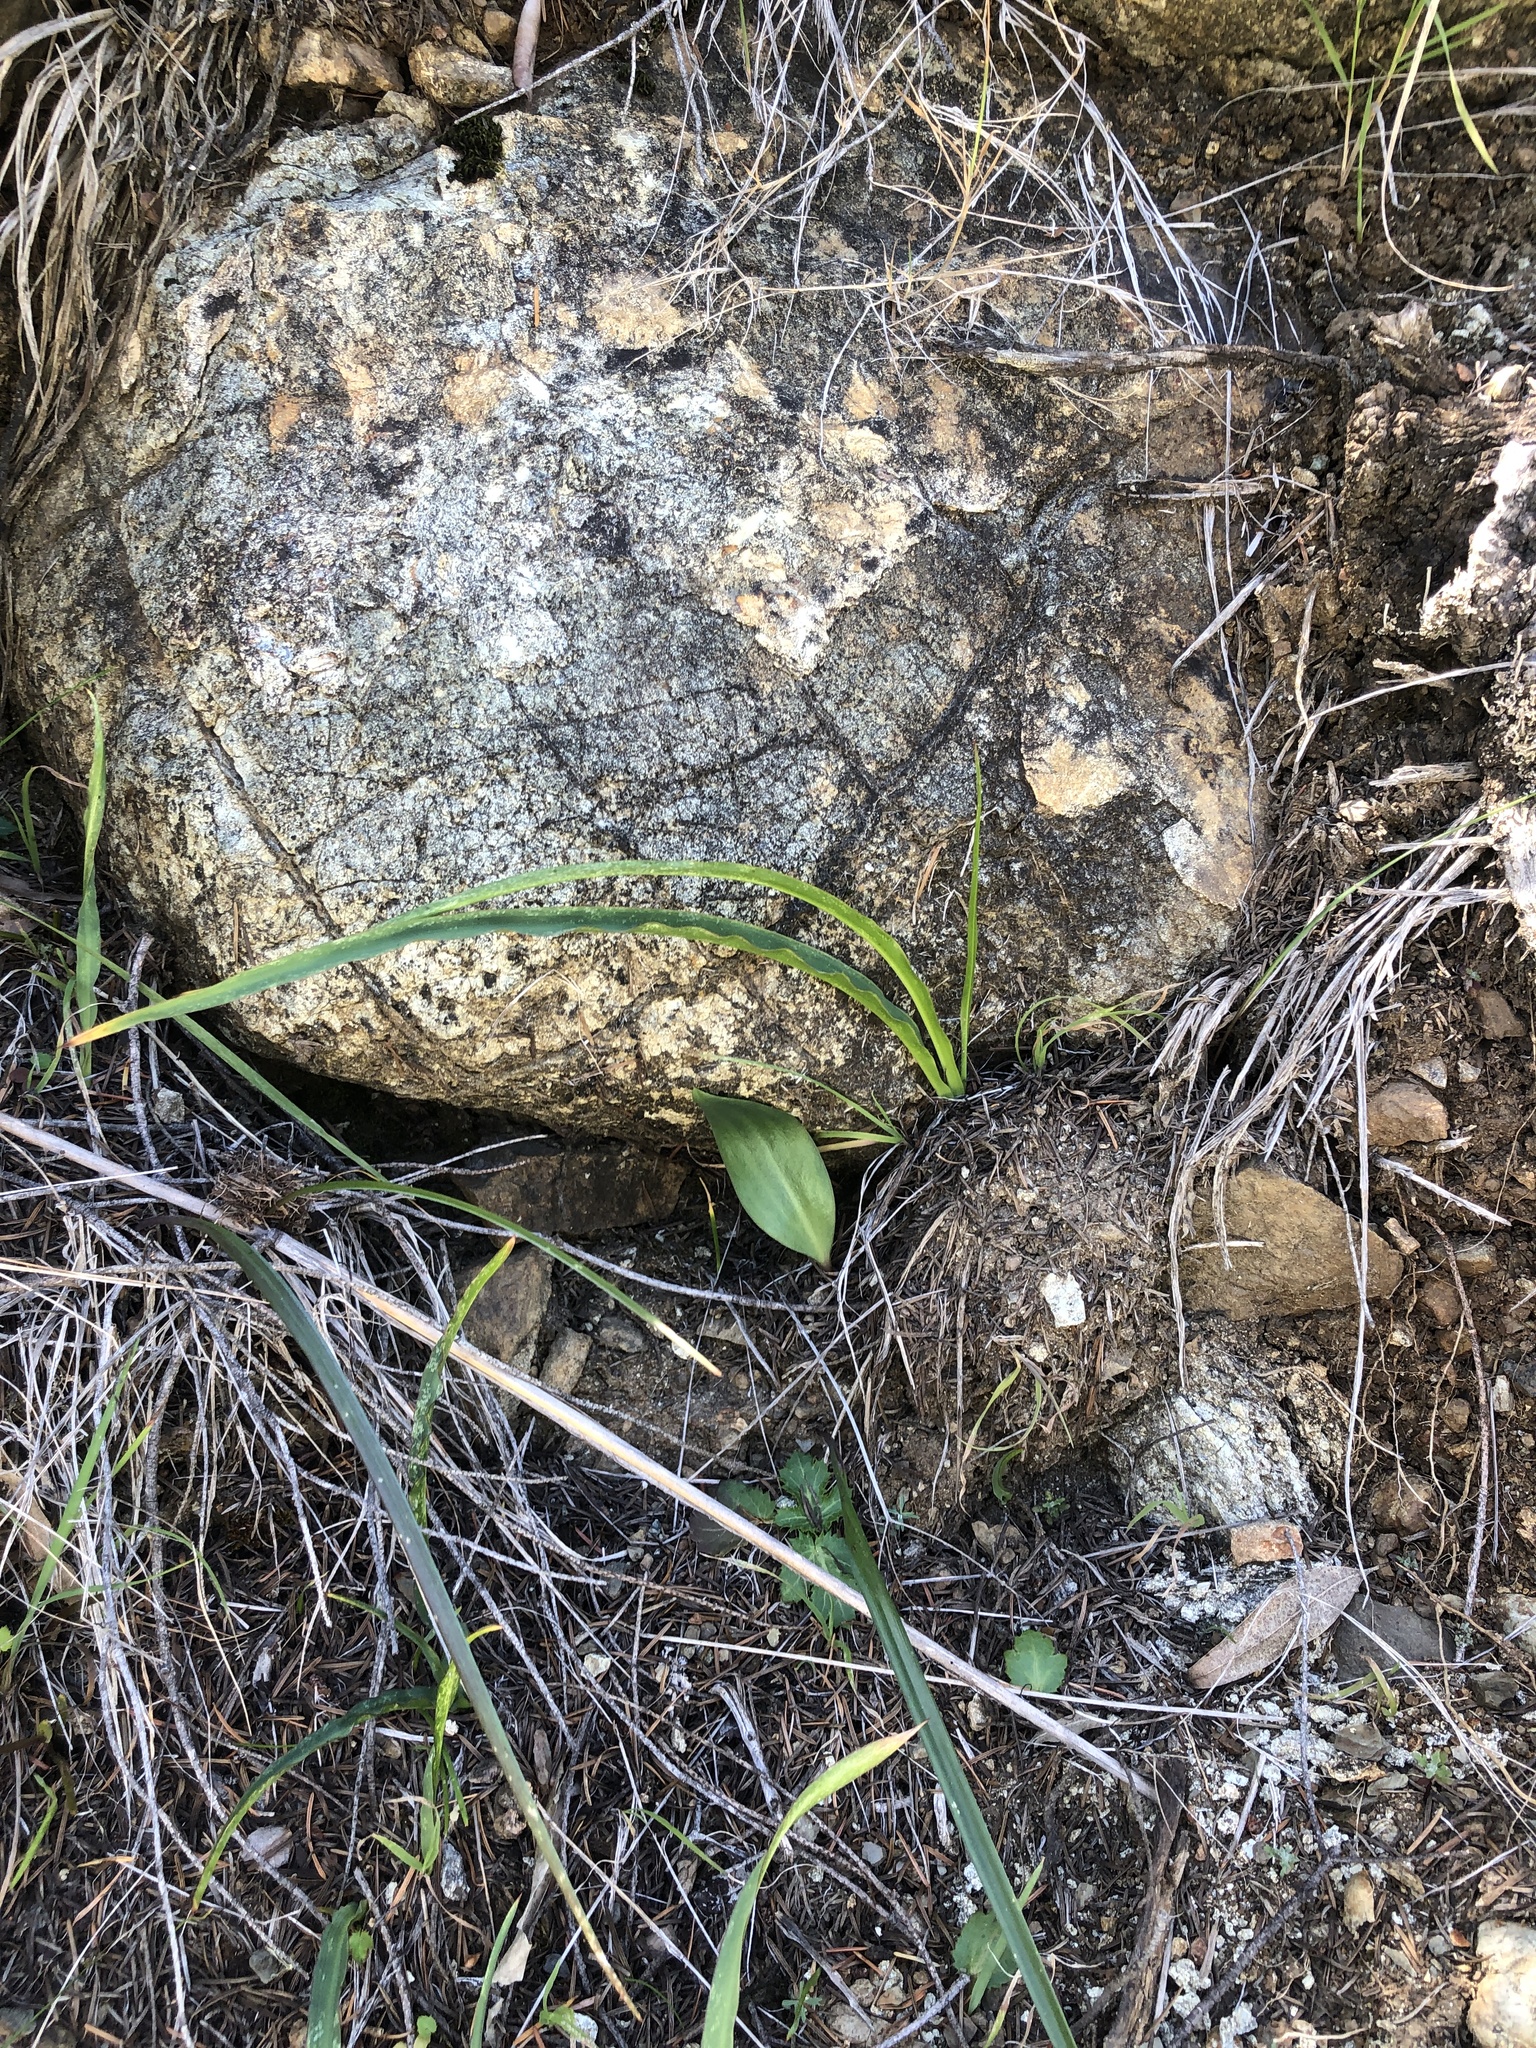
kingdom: Plantae
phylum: Tracheophyta
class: Liliopsida
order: Liliales
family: Liliaceae
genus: Fritillaria
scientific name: Fritillaria affinis
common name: Ojai fritillary
